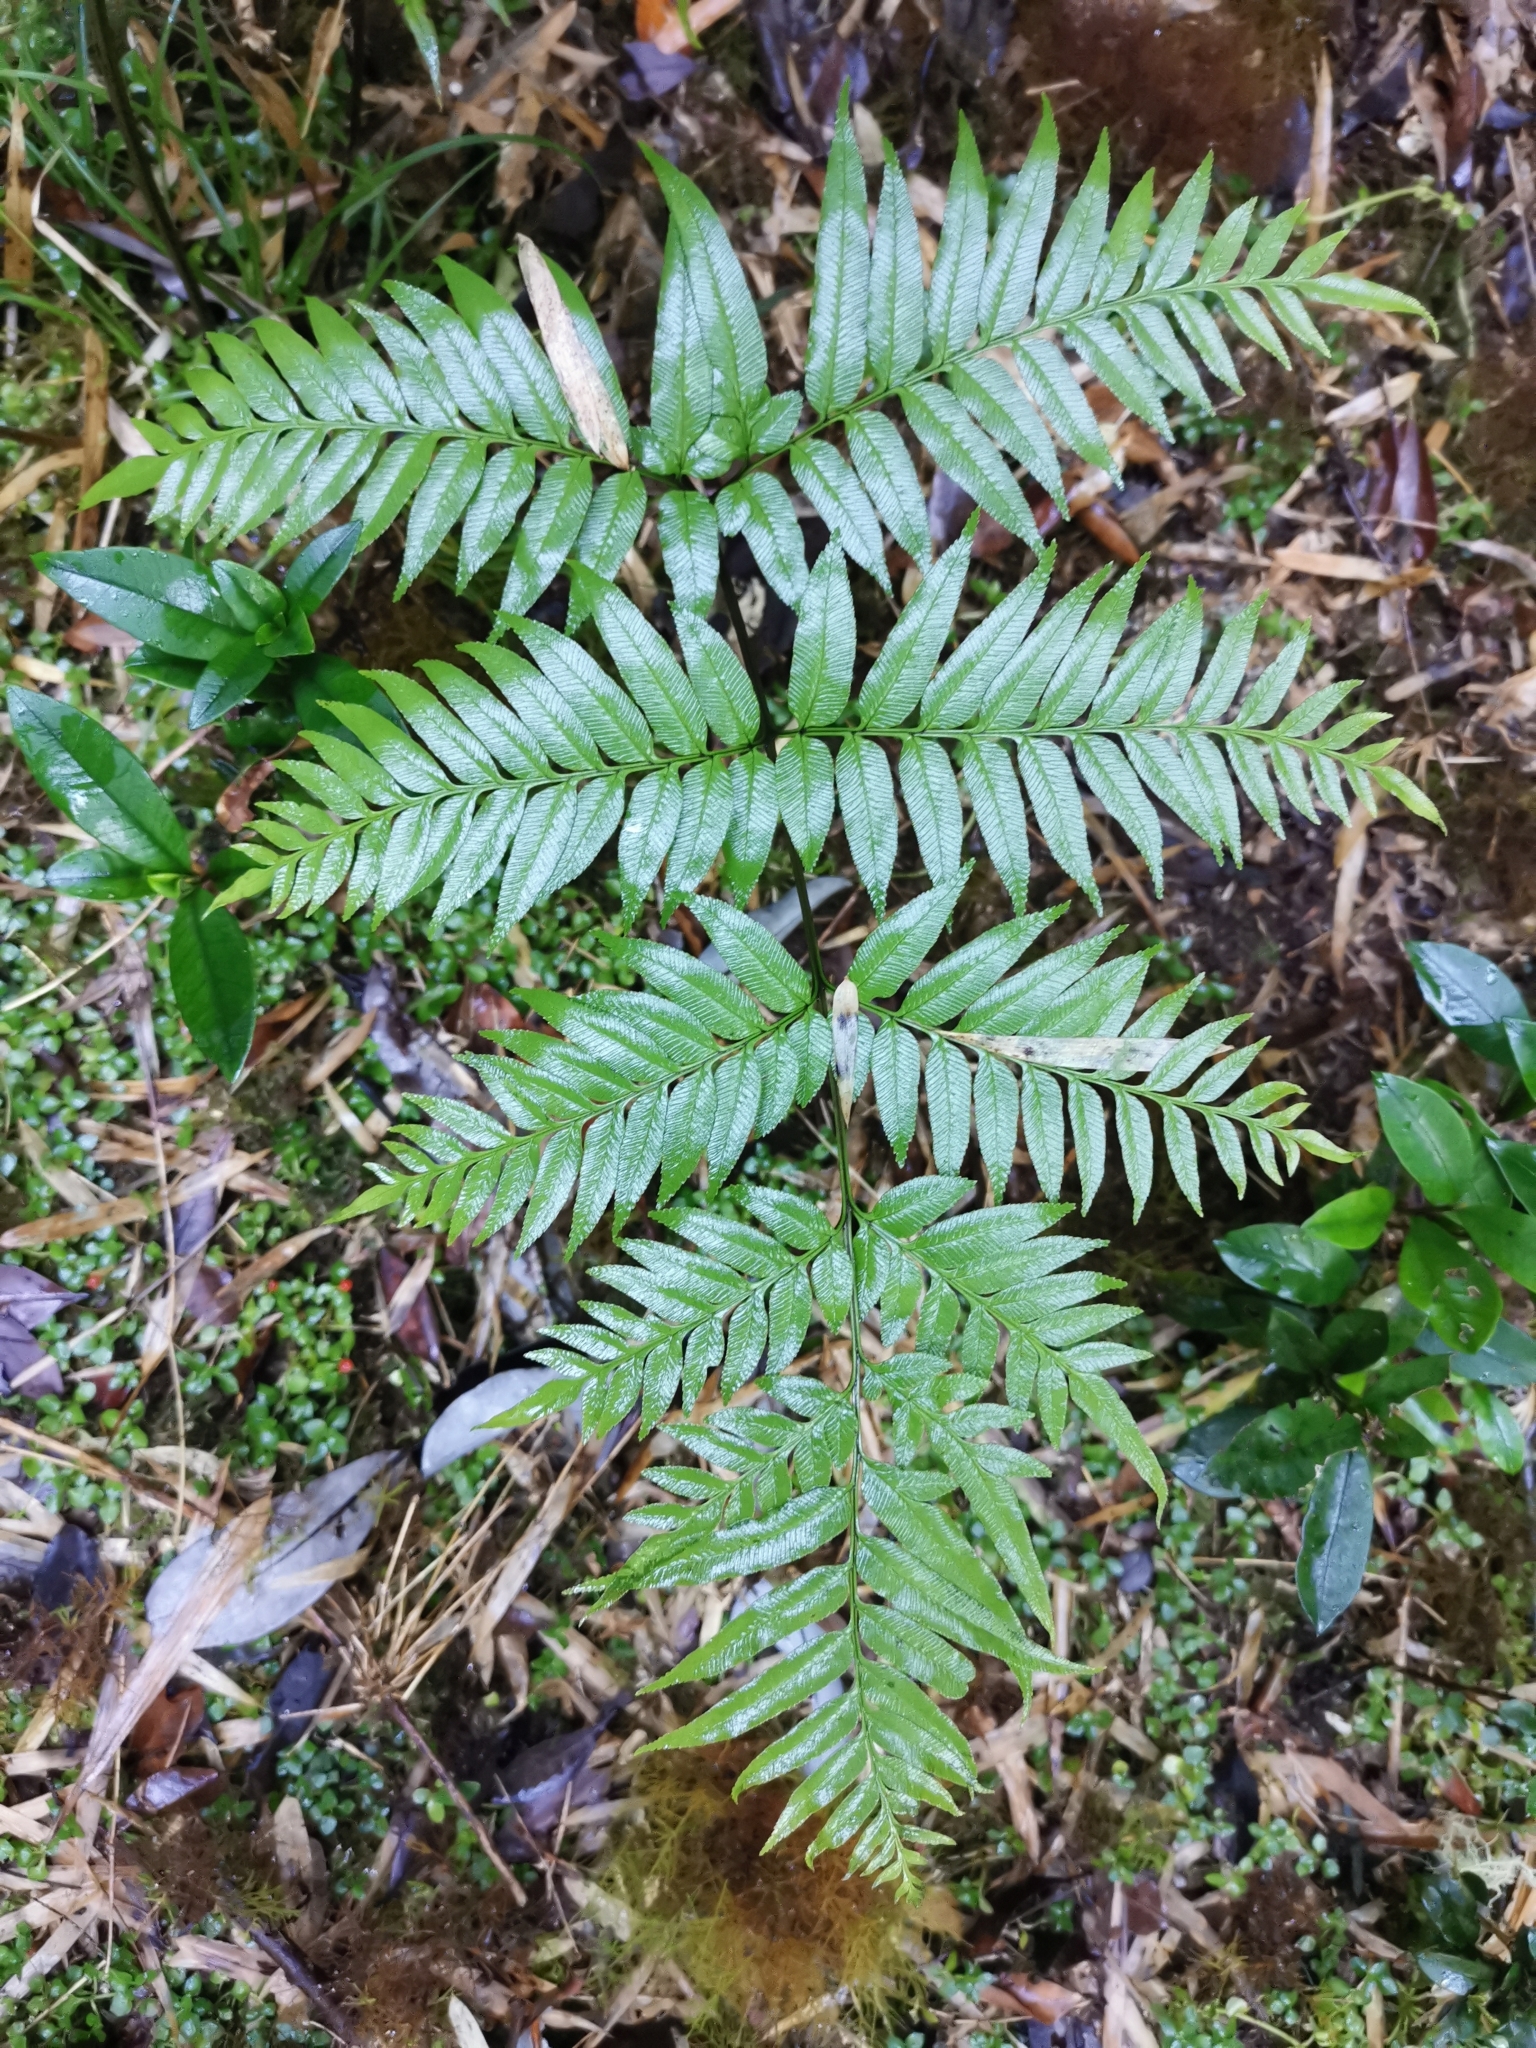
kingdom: Plantae
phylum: Tracheophyta
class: Polypodiopsida
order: Polypodiales
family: Pteridaceae
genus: Pteris
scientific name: Pteris semiadnata
